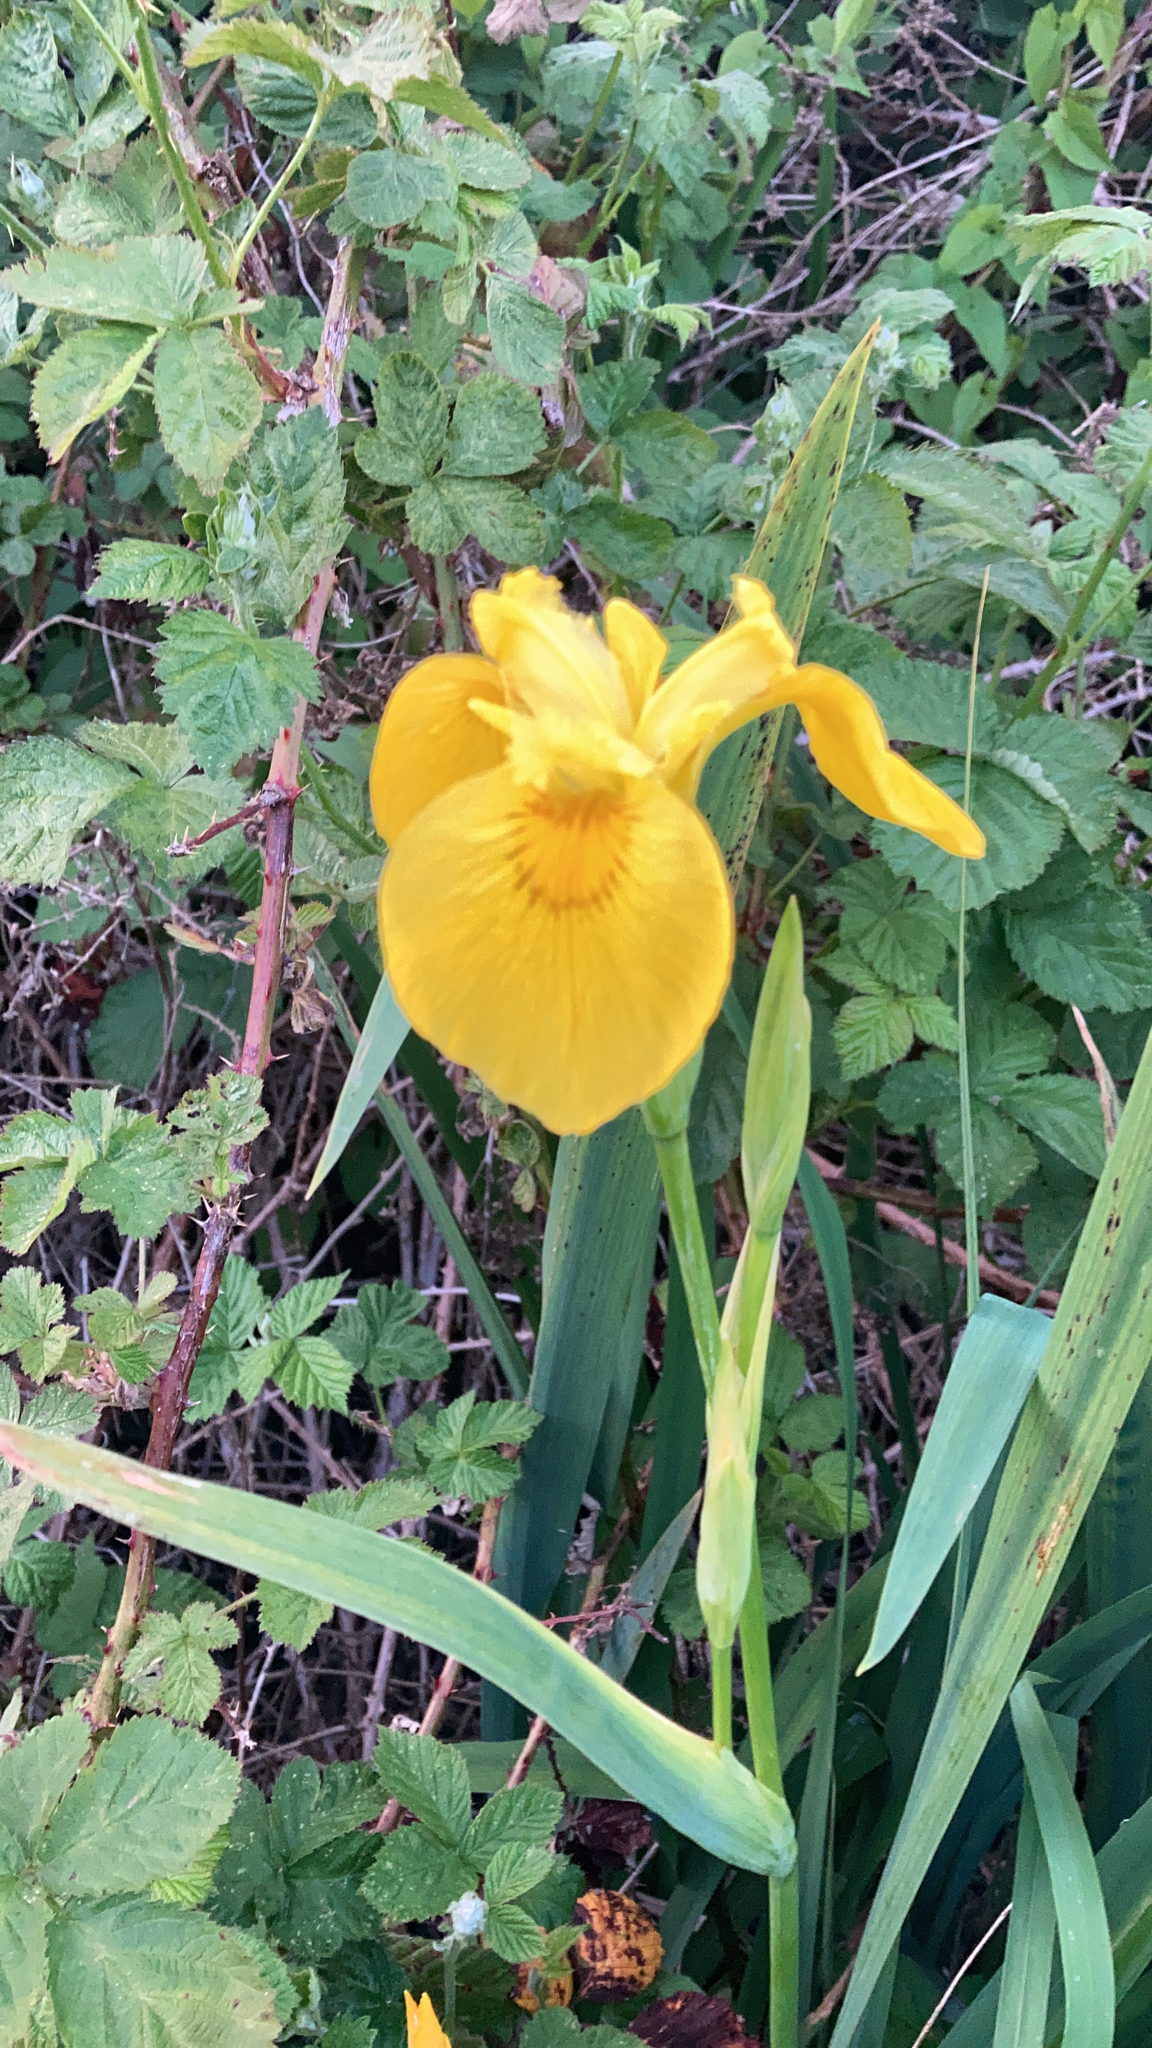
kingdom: Plantae
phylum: Tracheophyta
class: Liliopsida
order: Asparagales
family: Iridaceae
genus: Iris
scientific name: Iris pseudacorus
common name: Yellow flag
